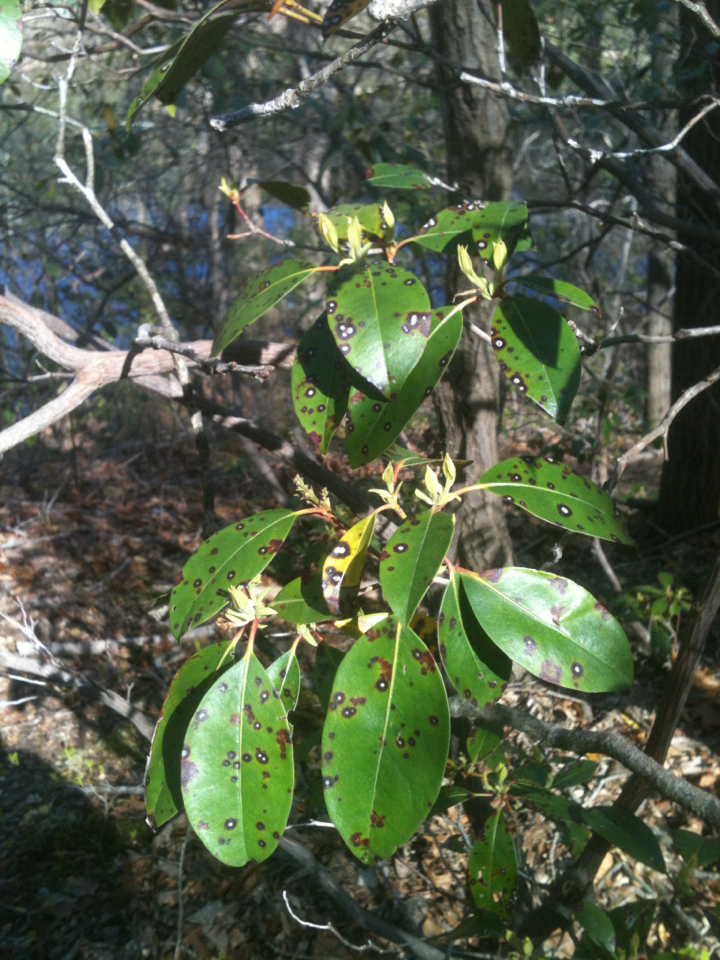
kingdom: Plantae
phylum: Tracheophyta
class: Magnoliopsida
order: Ericales
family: Ericaceae
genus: Kalmia
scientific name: Kalmia latifolia
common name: Mountain-laurel
